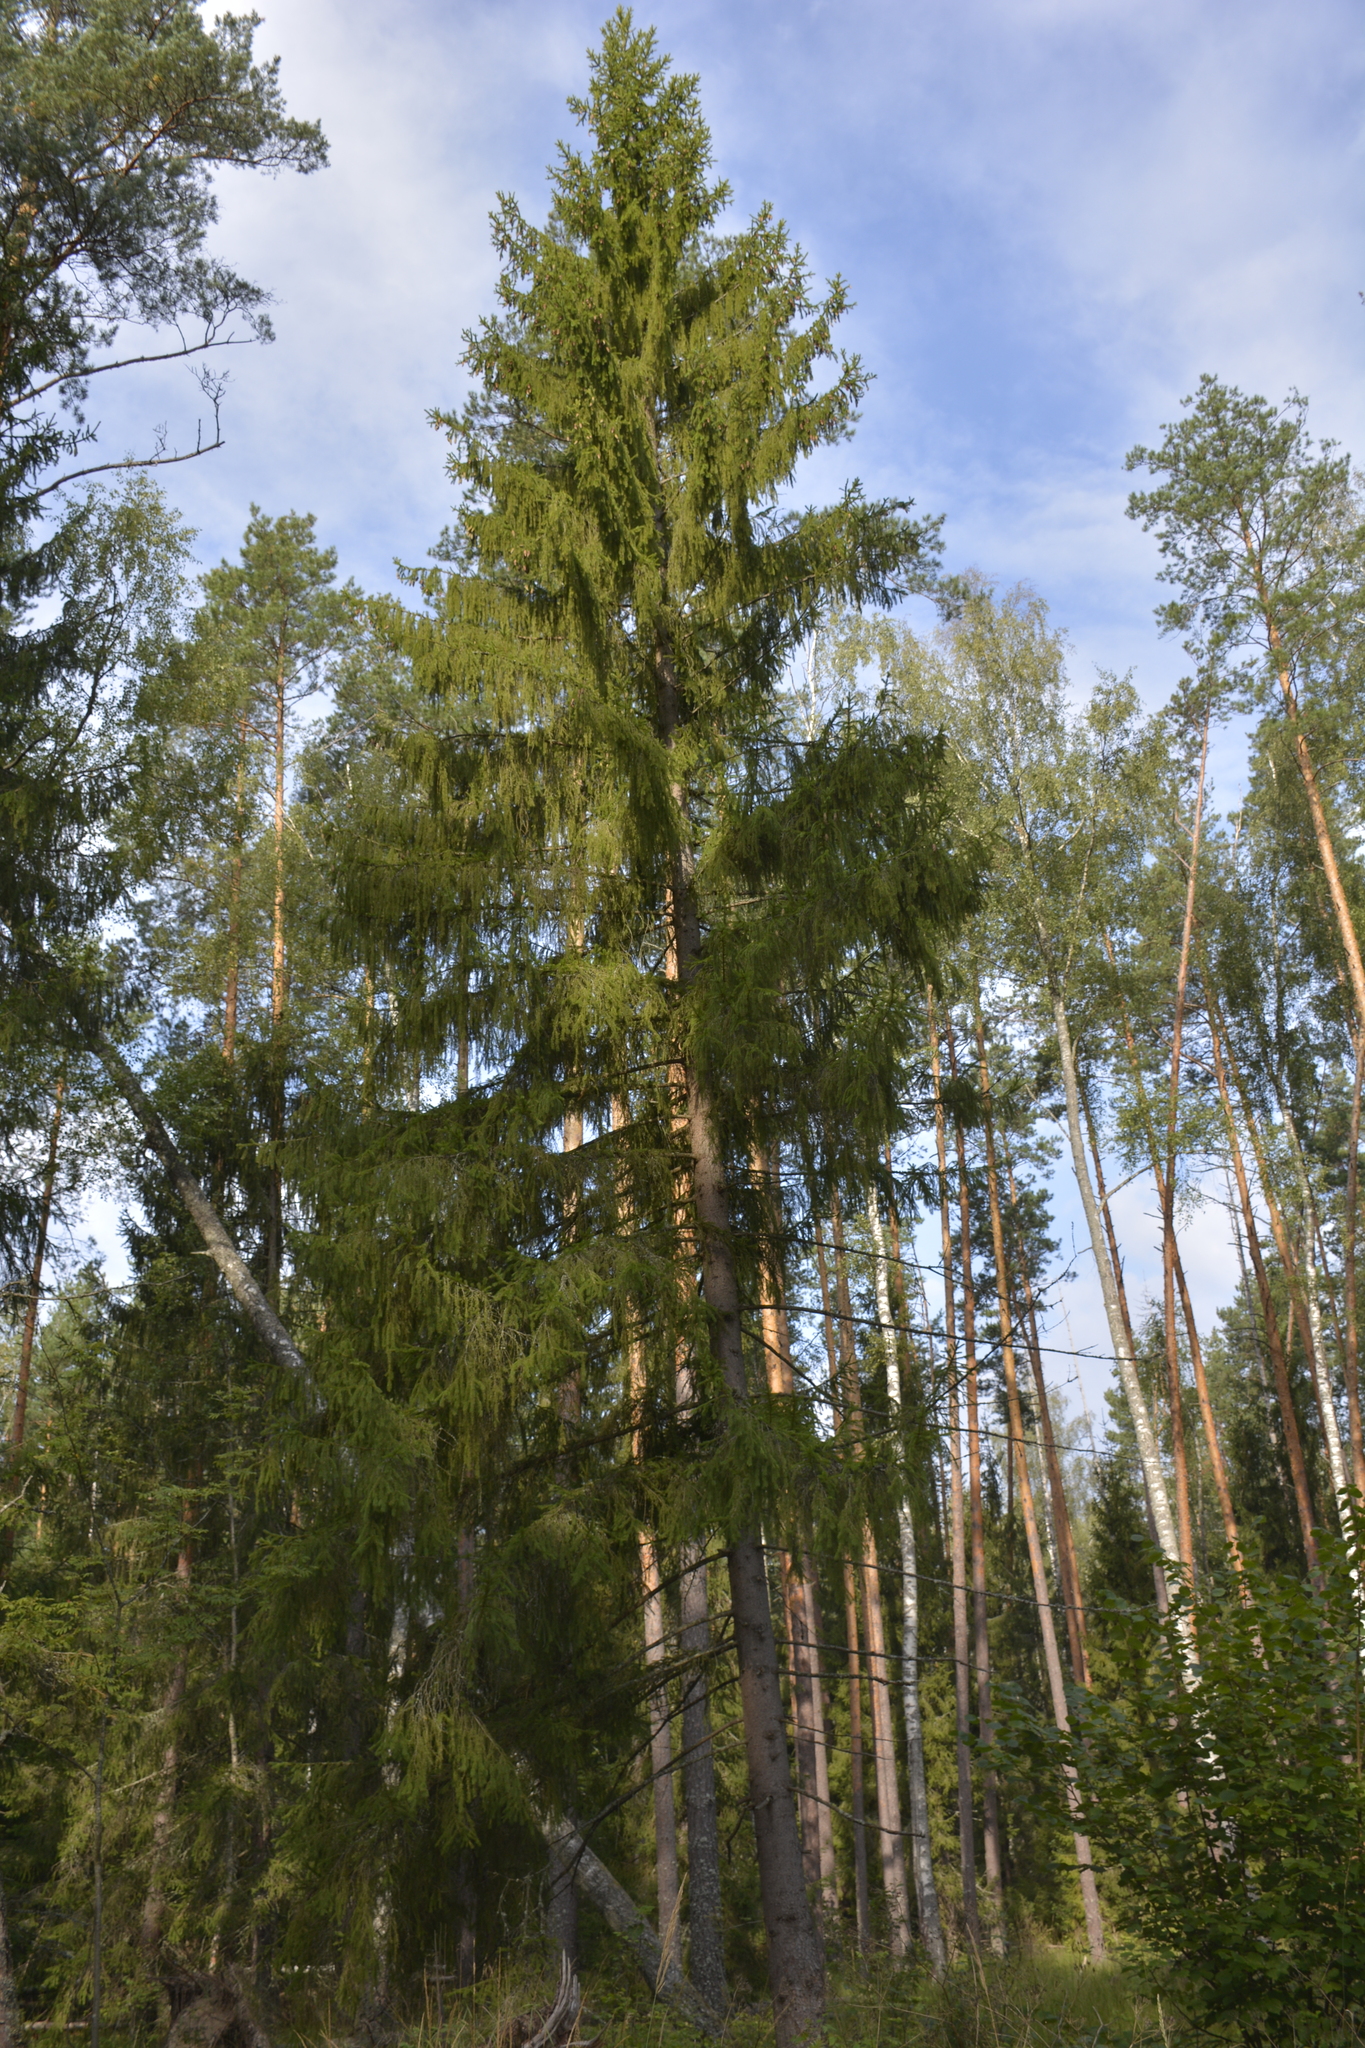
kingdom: Plantae
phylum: Tracheophyta
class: Pinopsida
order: Pinales
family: Pinaceae
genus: Picea
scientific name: Picea abies
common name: Norway spruce
